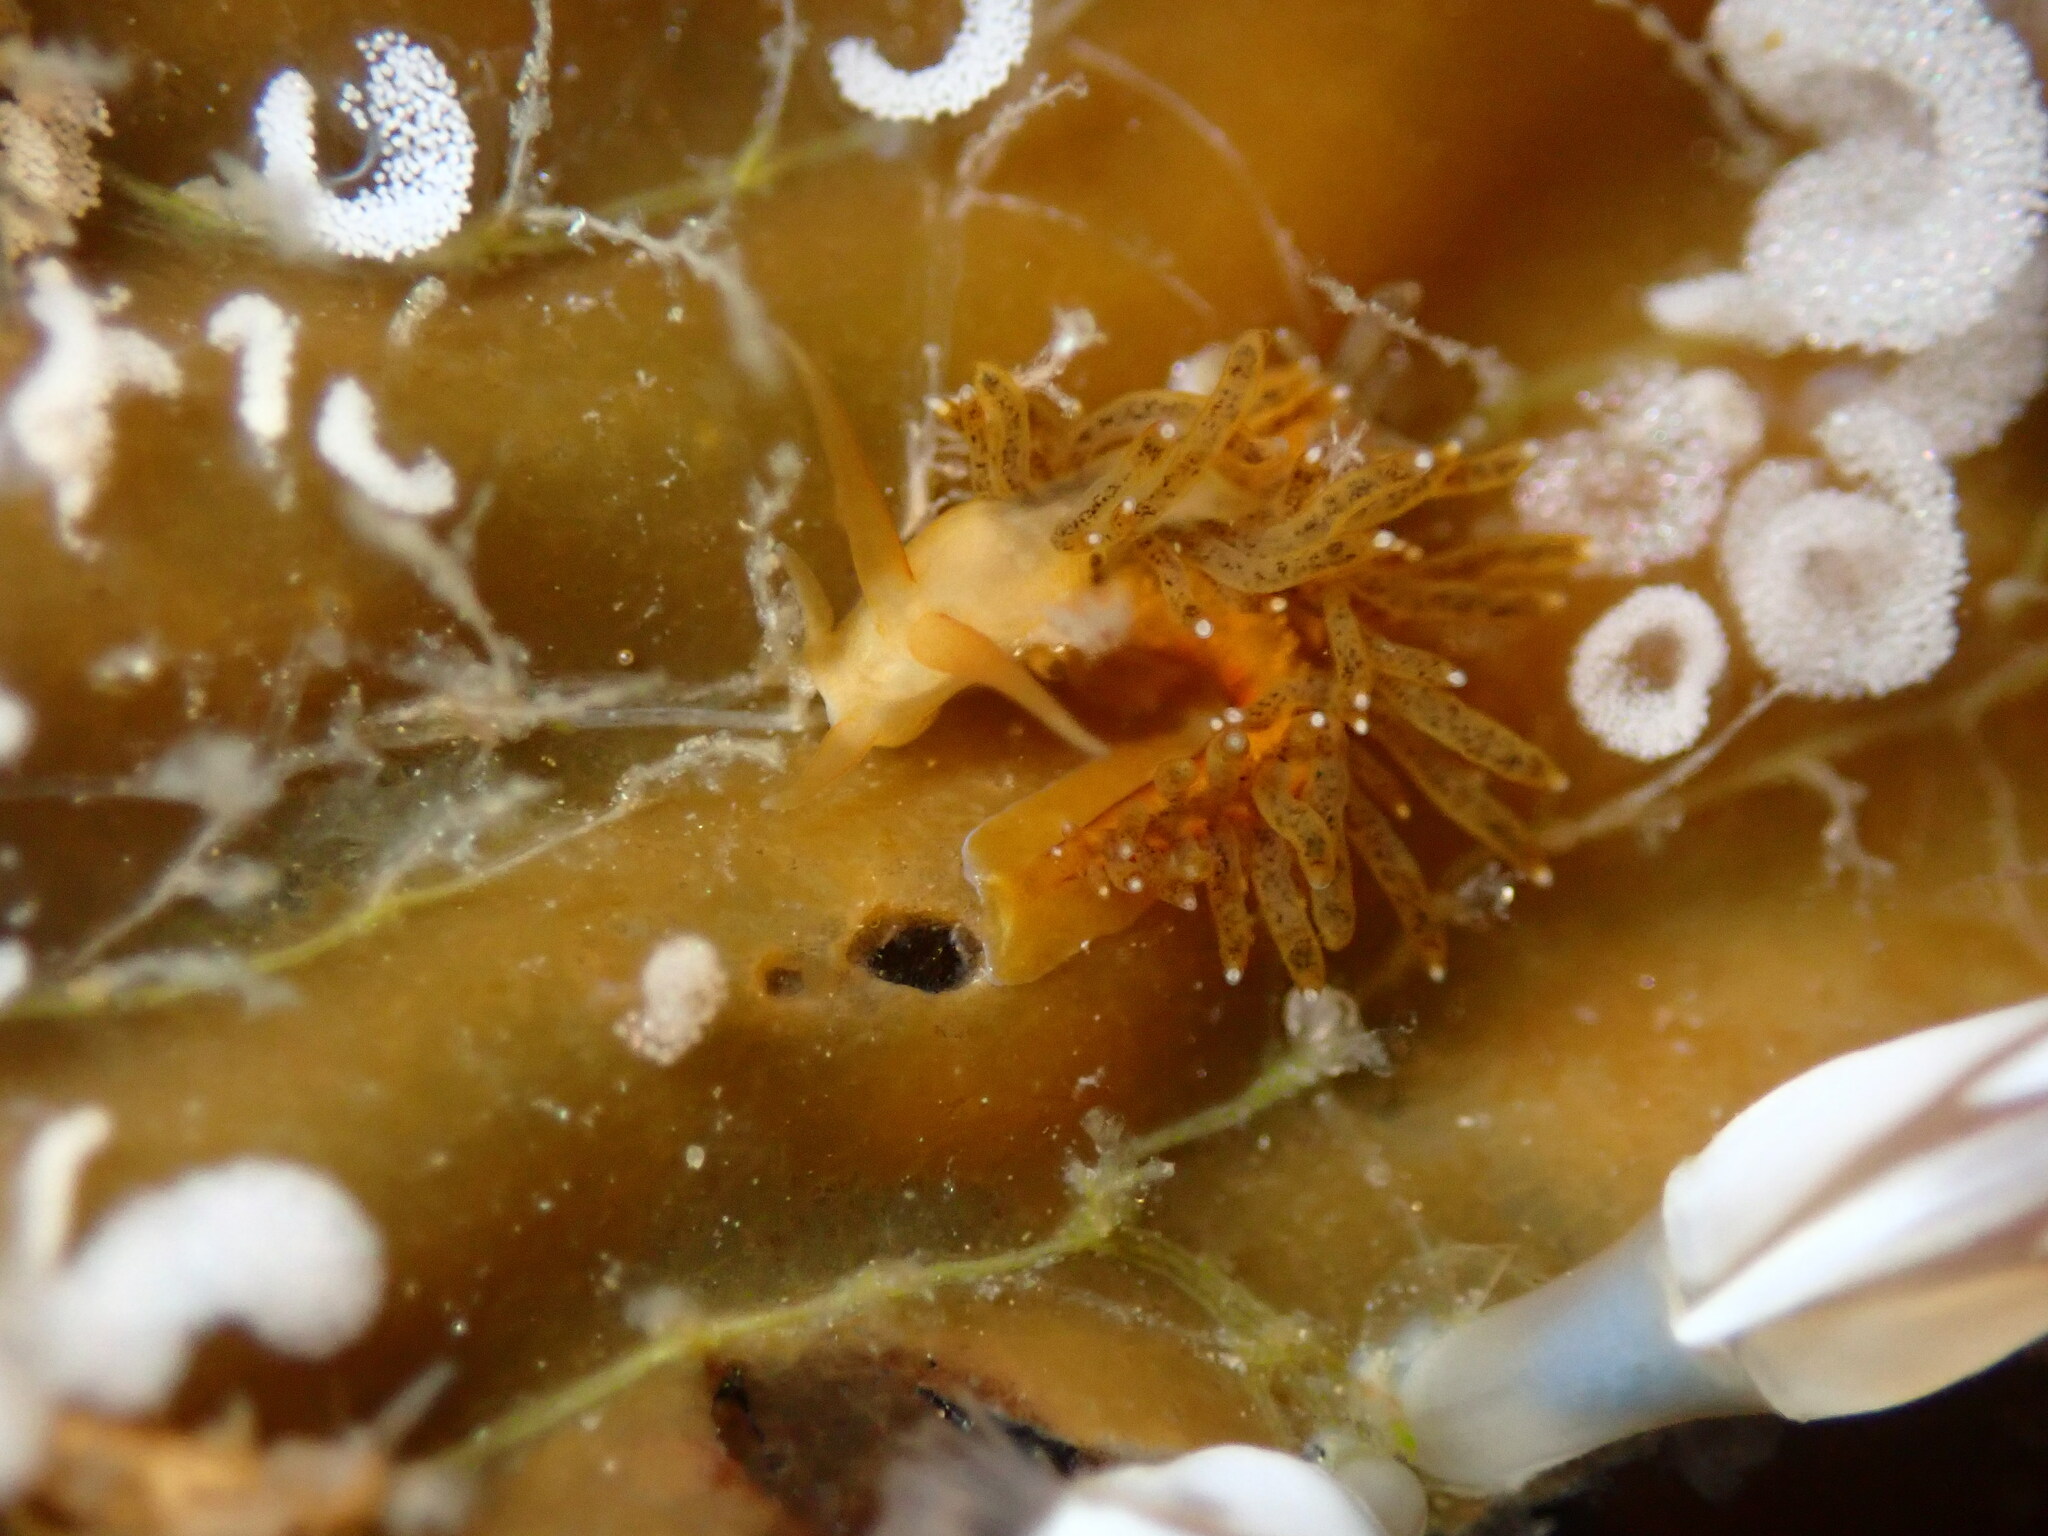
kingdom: Animalia
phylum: Mollusca
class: Gastropoda
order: Nudibranchia
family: Cuthonidae
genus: Cuthona
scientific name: Cuthona phoenix
